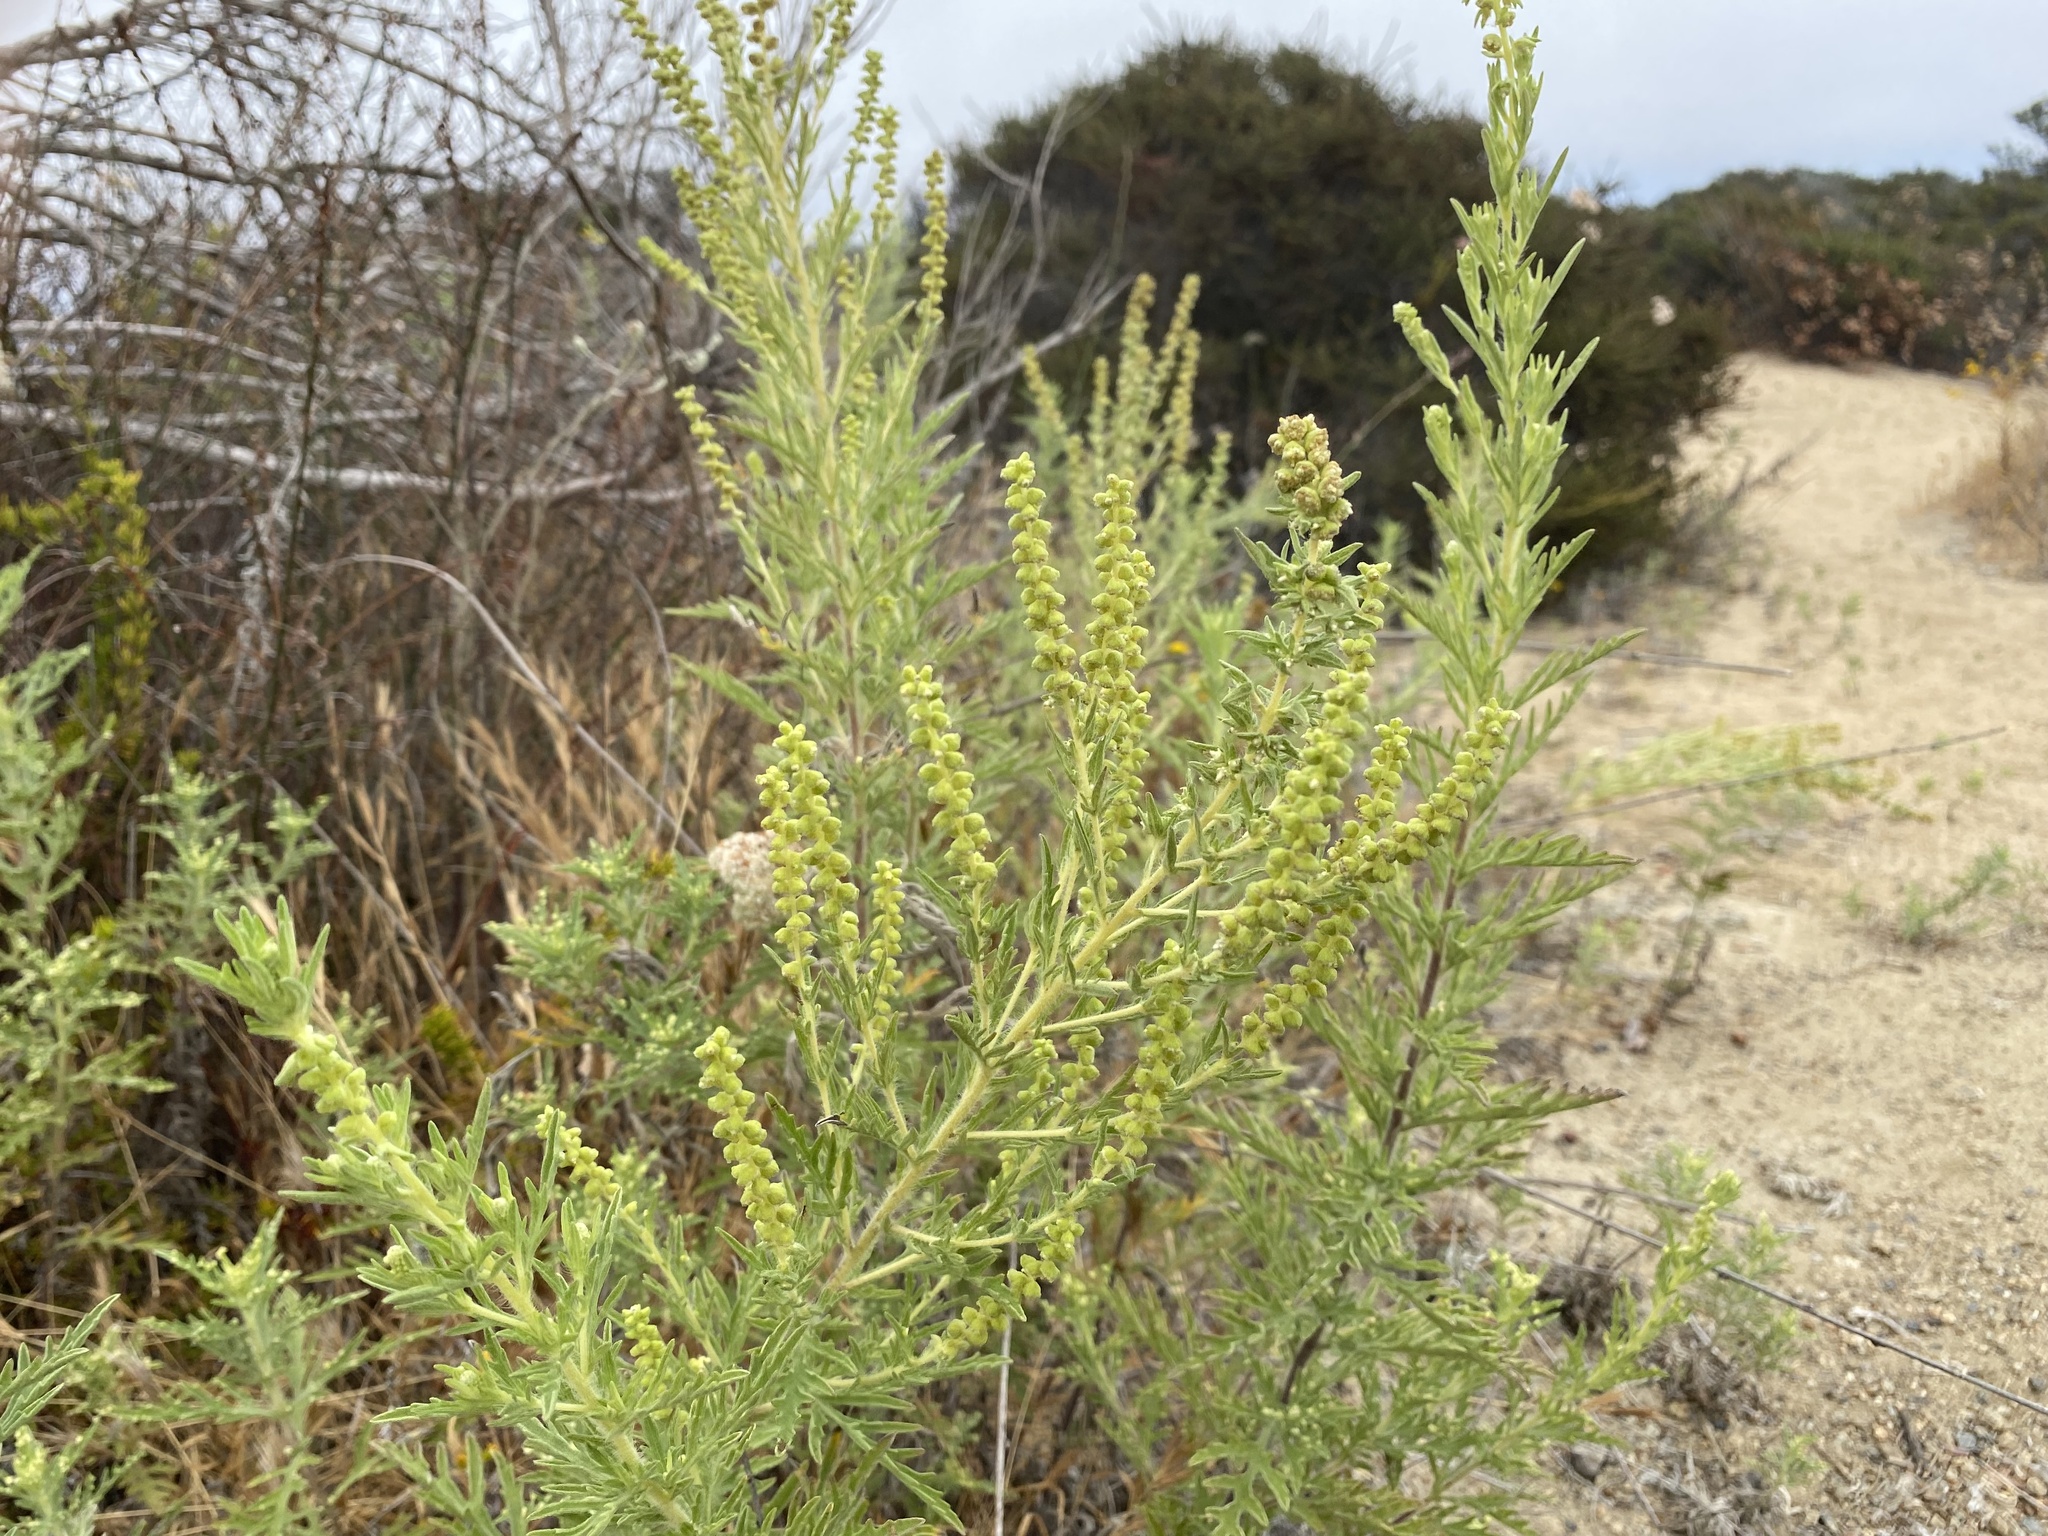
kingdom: Plantae
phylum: Tracheophyta
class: Magnoliopsida
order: Asterales
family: Asteraceae
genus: Ambrosia
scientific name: Ambrosia psilostachya
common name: Perennial ragweed
